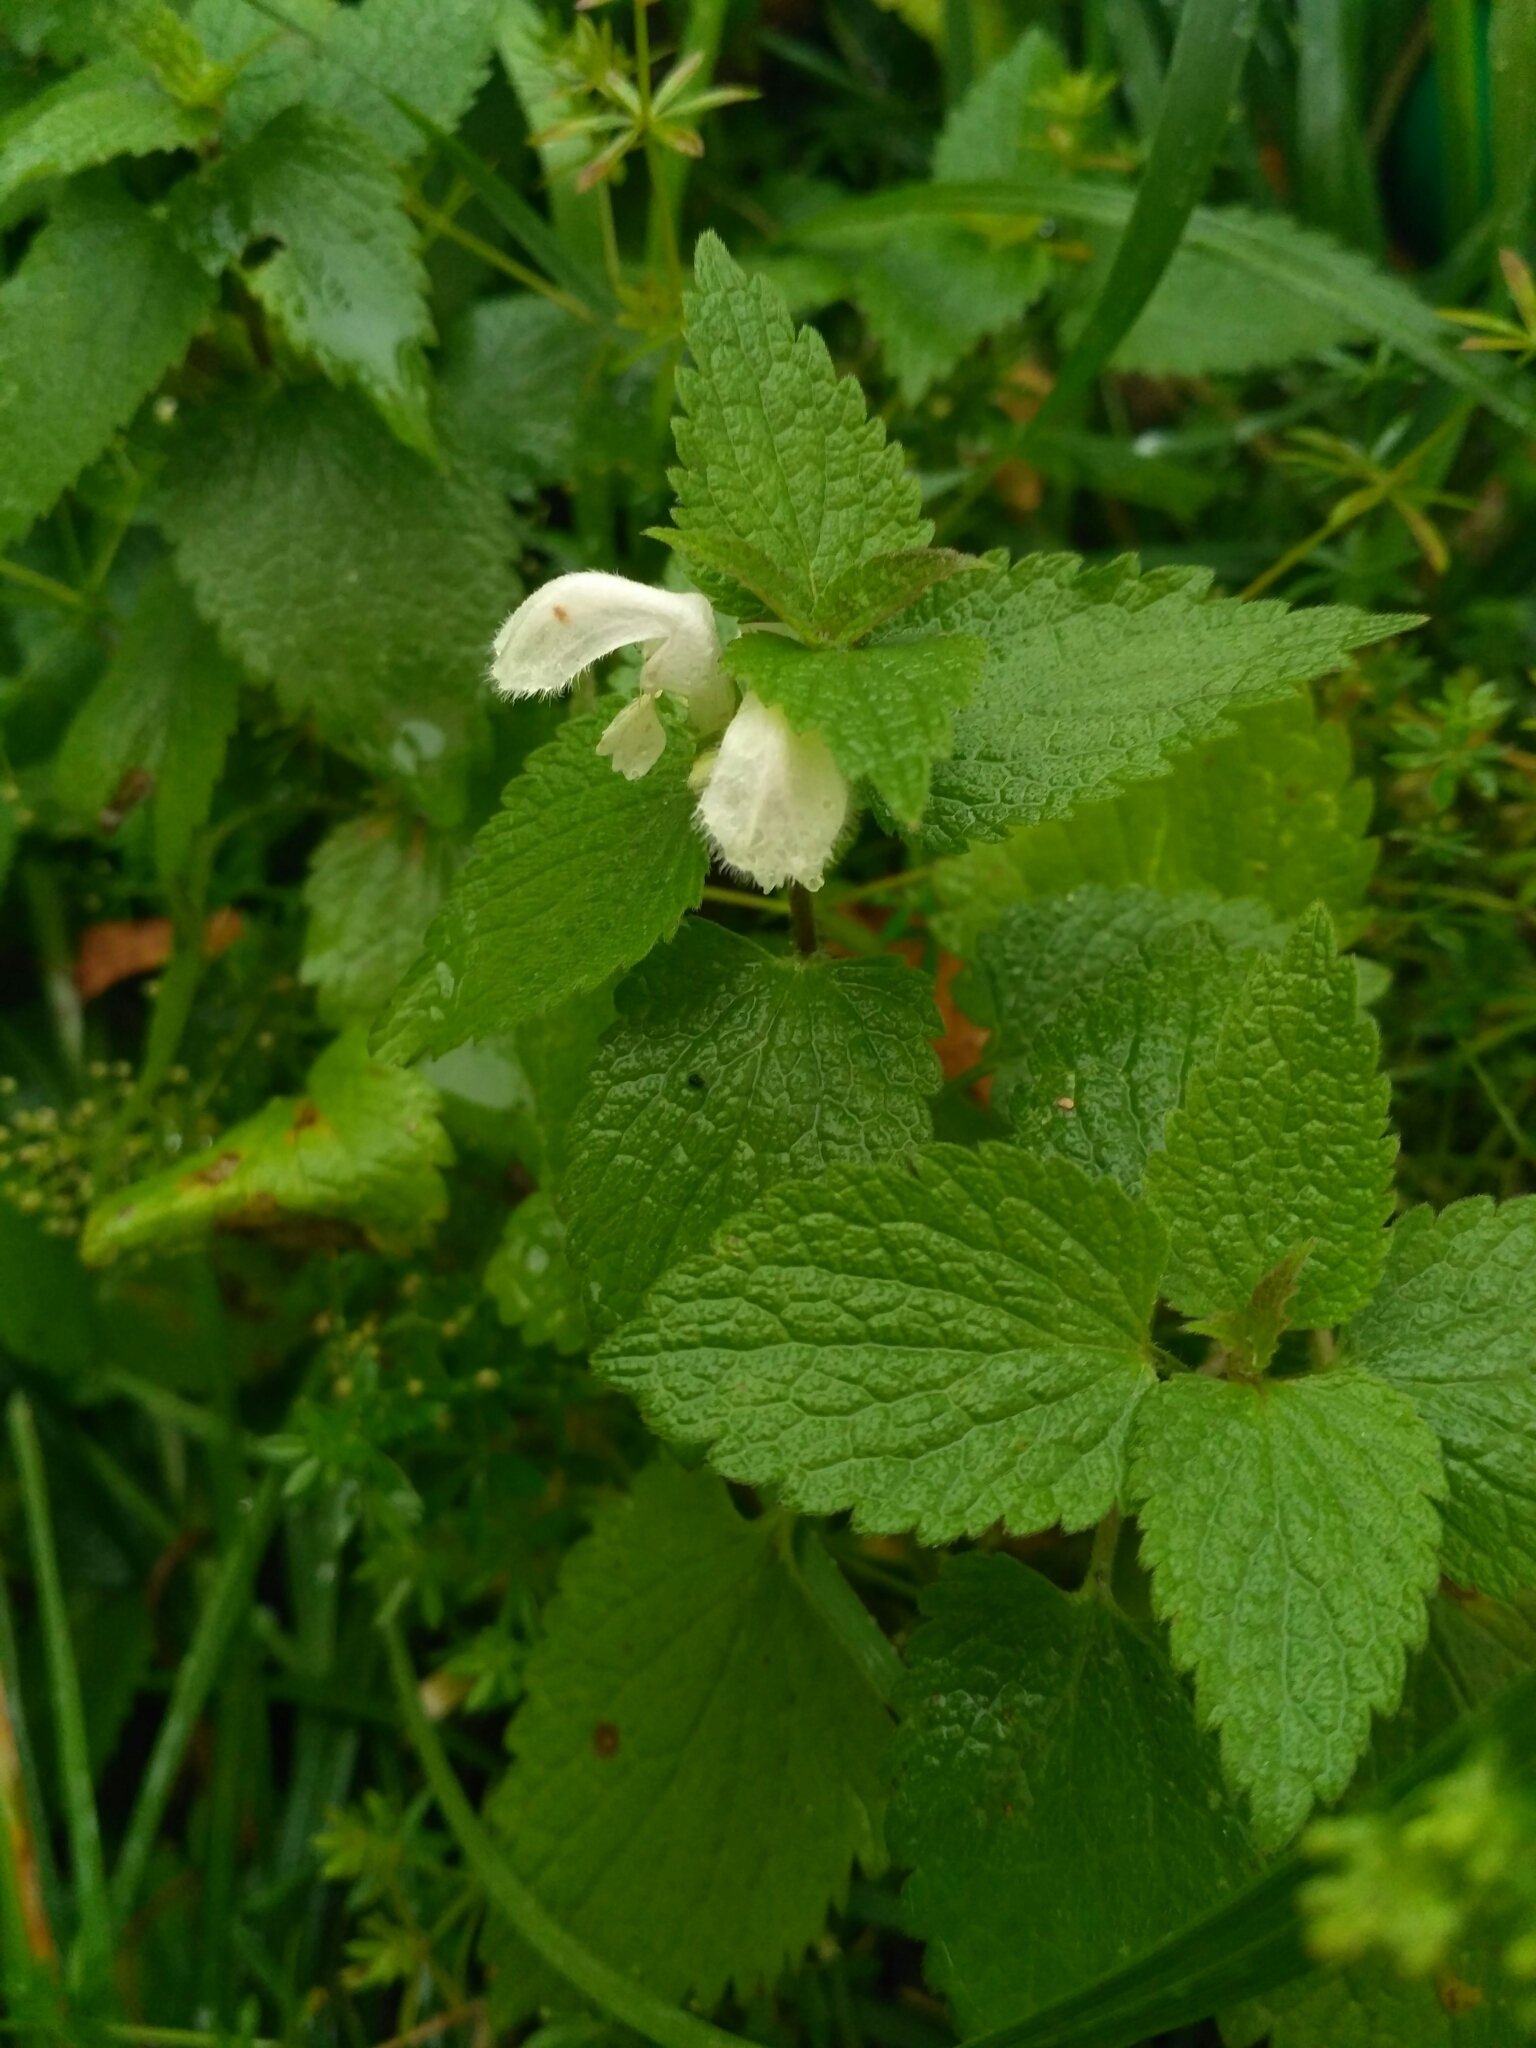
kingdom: Plantae
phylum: Tracheophyta
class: Magnoliopsida
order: Lamiales
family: Lamiaceae
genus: Lamium
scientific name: Lamium album
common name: White dead-nettle
